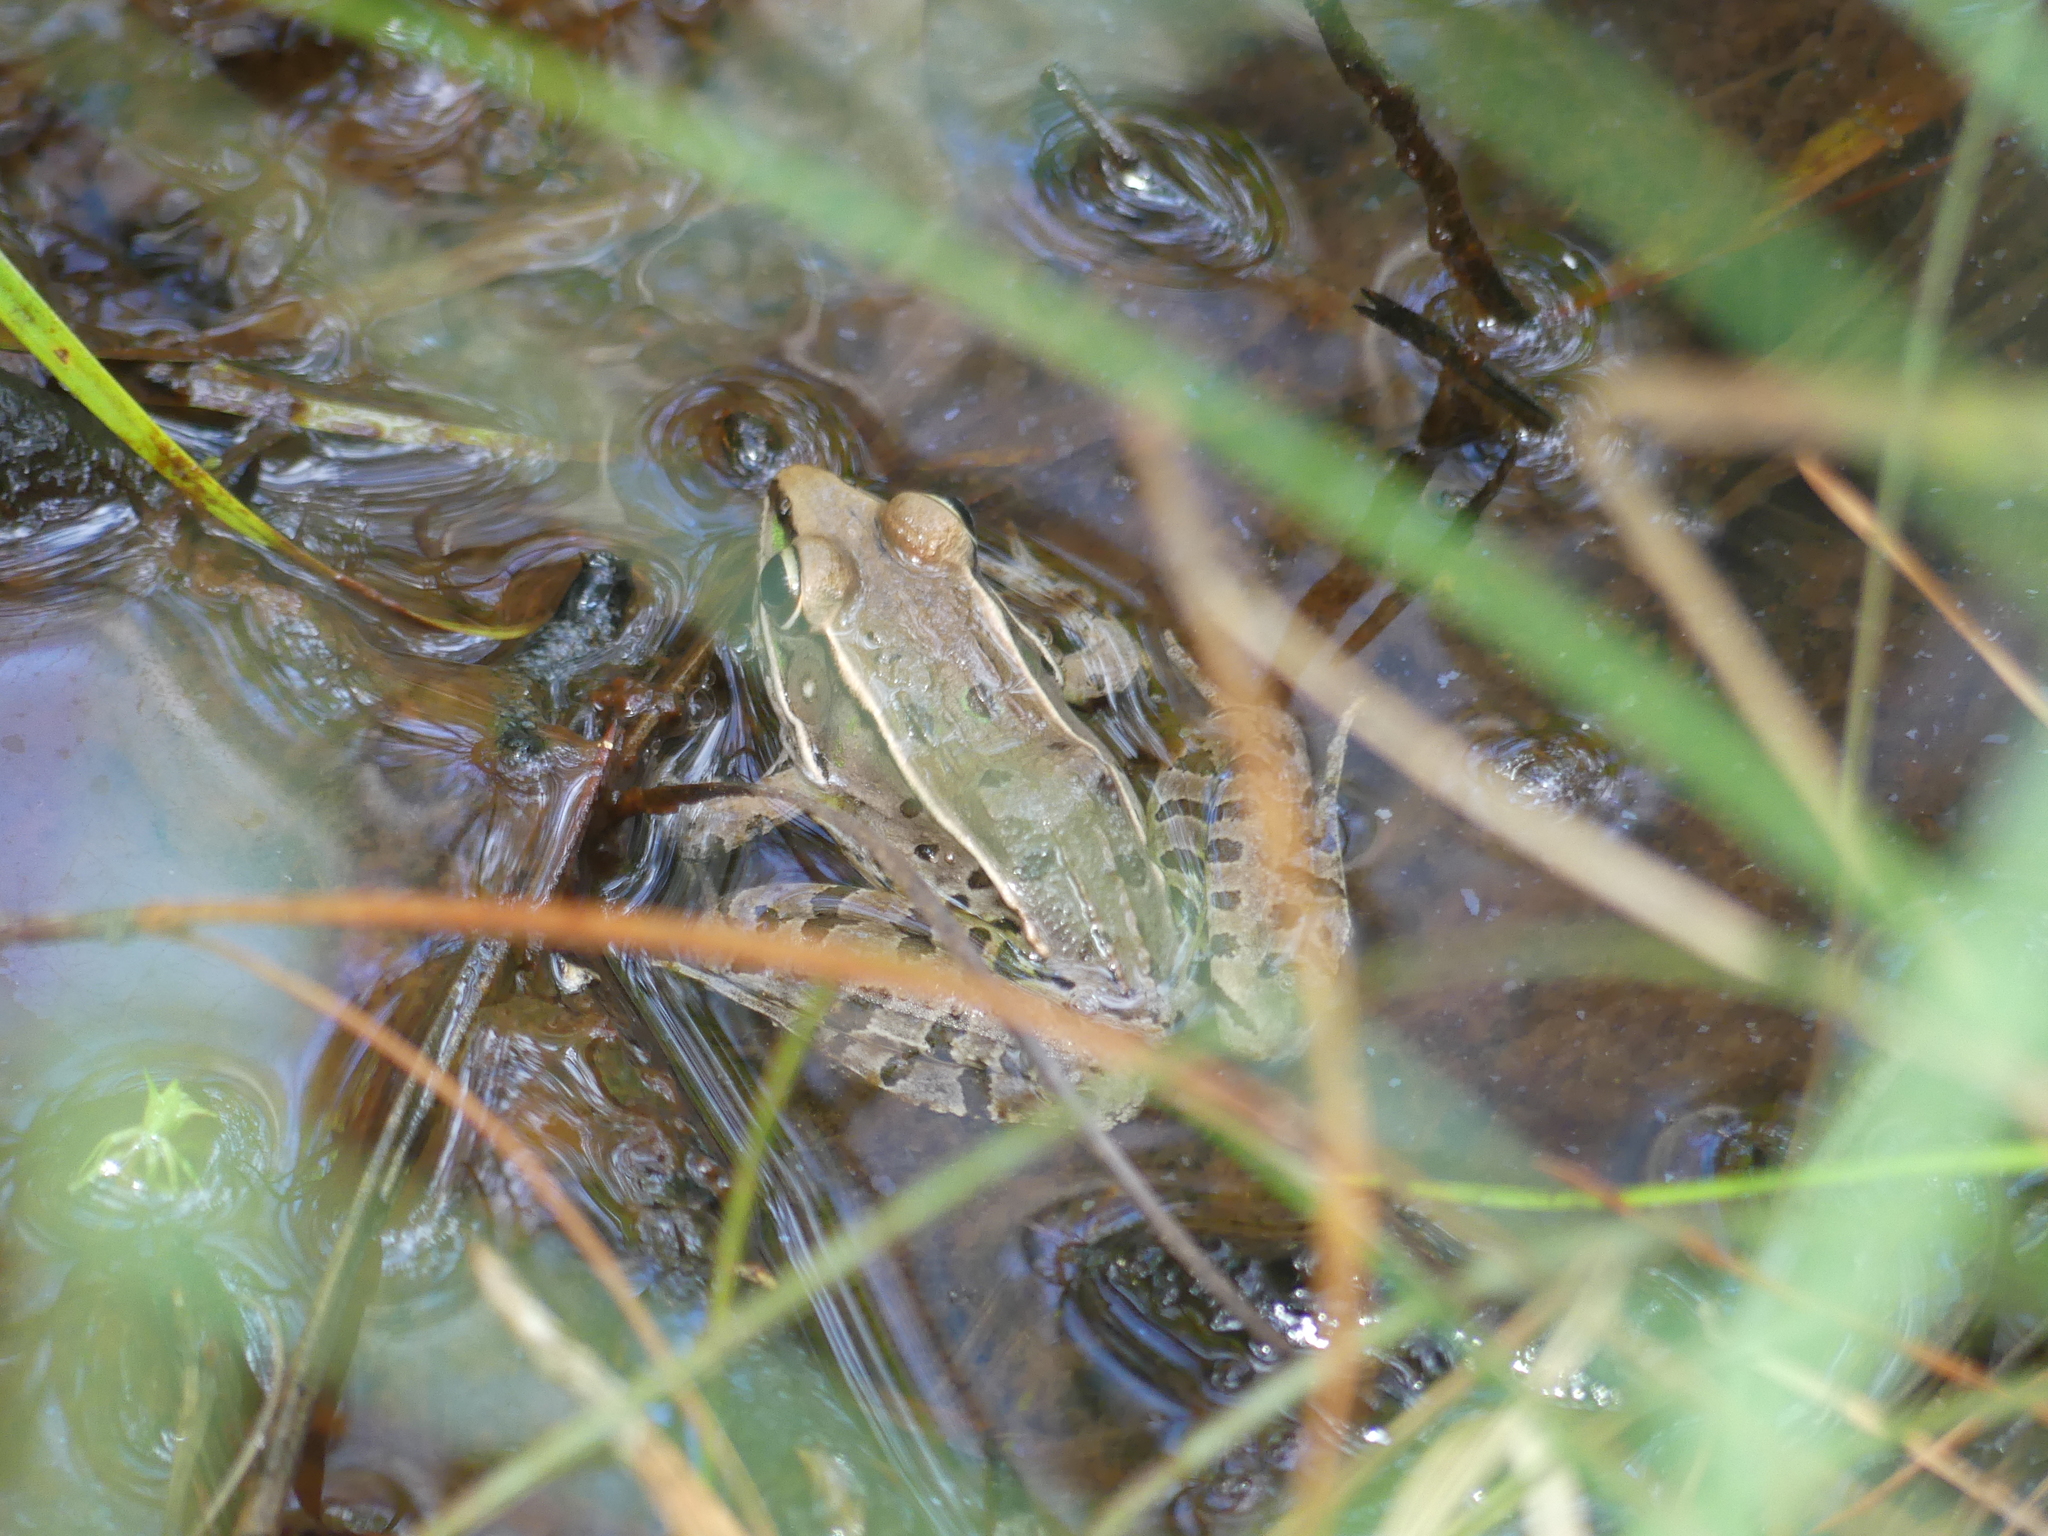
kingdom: Animalia
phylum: Chordata
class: Amphibia
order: Anura
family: Ranidae
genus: Lithobates
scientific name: Lithobates sphenocephalus
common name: Southern leopard frog
